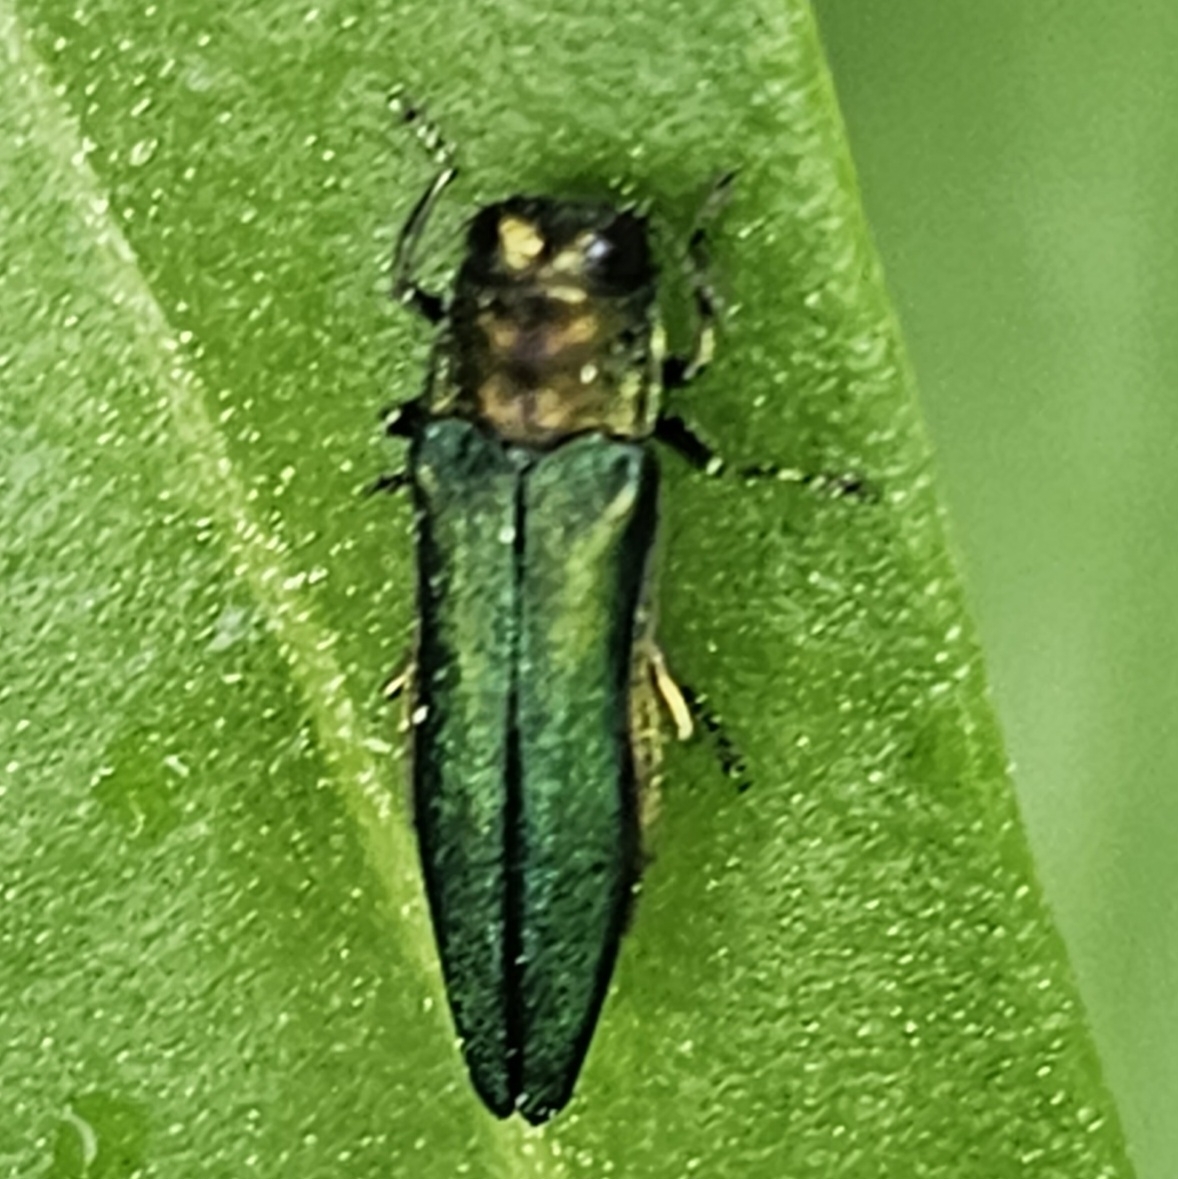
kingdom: Animalia
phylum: Arthropoda
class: Insecta
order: Coleoptera
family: Buprestidae
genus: Agrilus
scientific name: Agrilus planipennis
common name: Emerald ash borer
